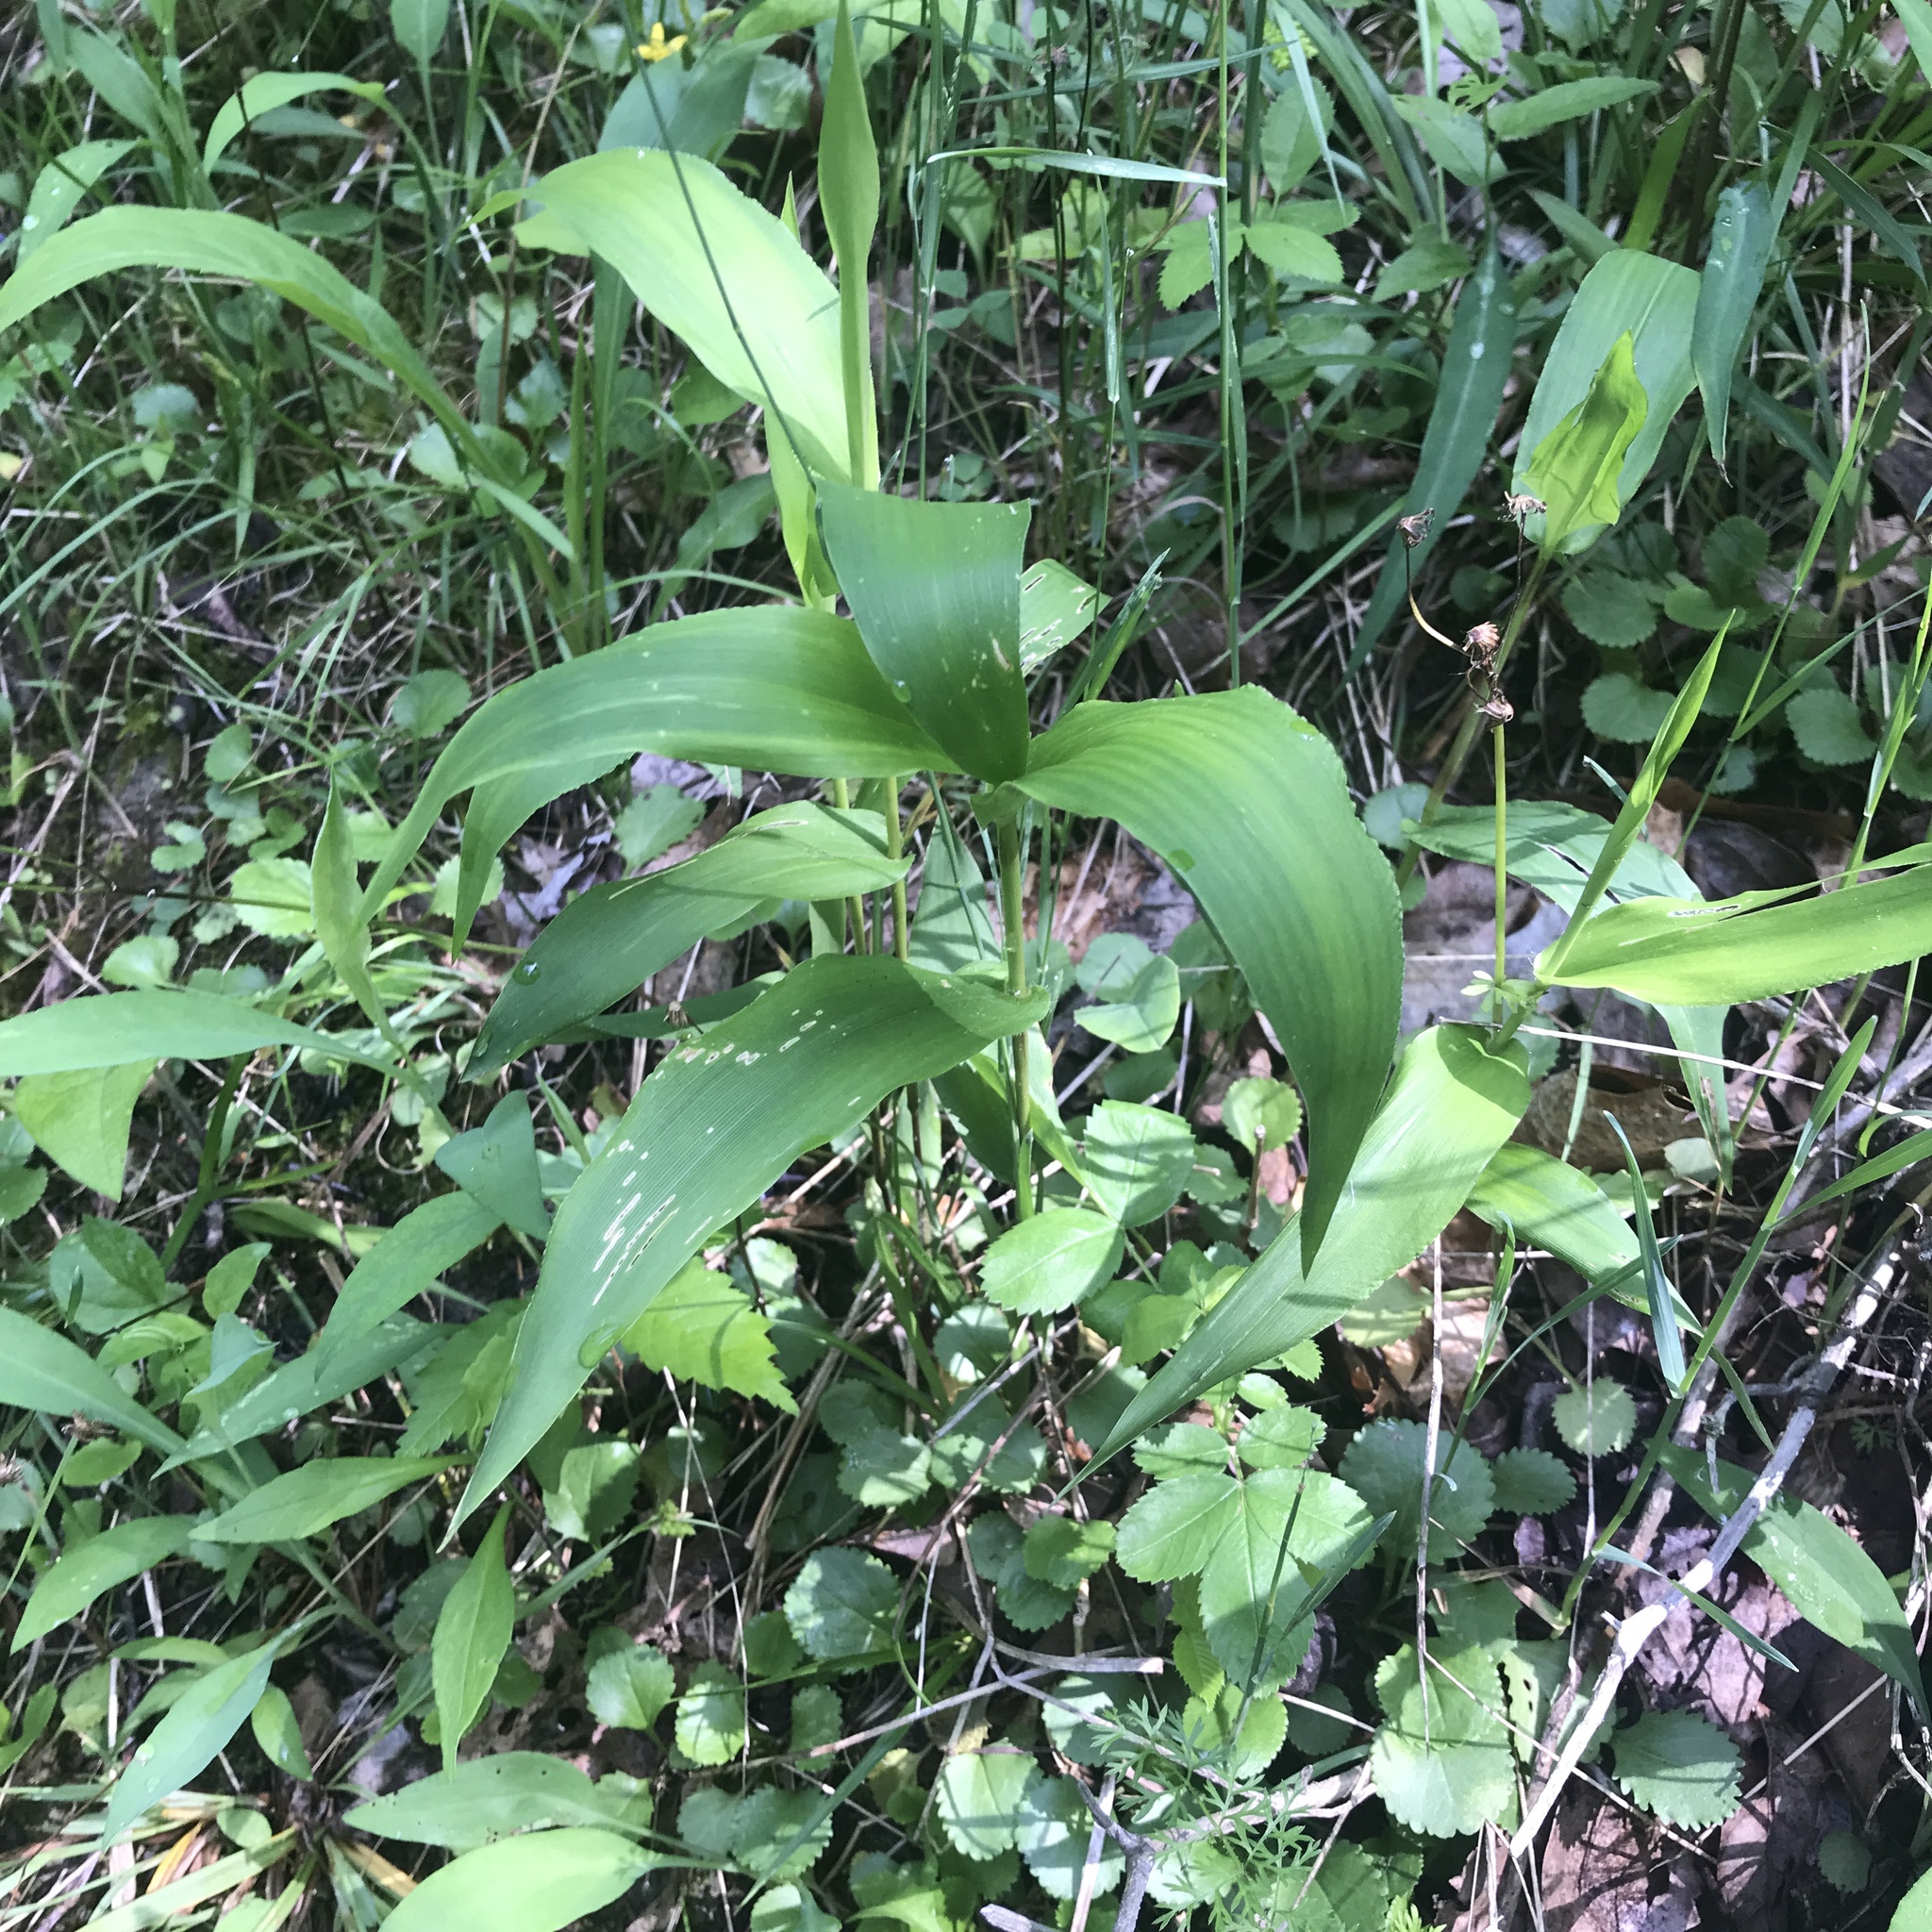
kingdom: Plantae
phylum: Tracheophyta
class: Liliopsida
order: Poales
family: Poaceae
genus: Dichanthelium
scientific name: Dichanthelium latifolium
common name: Broad-leaved panicgrass
